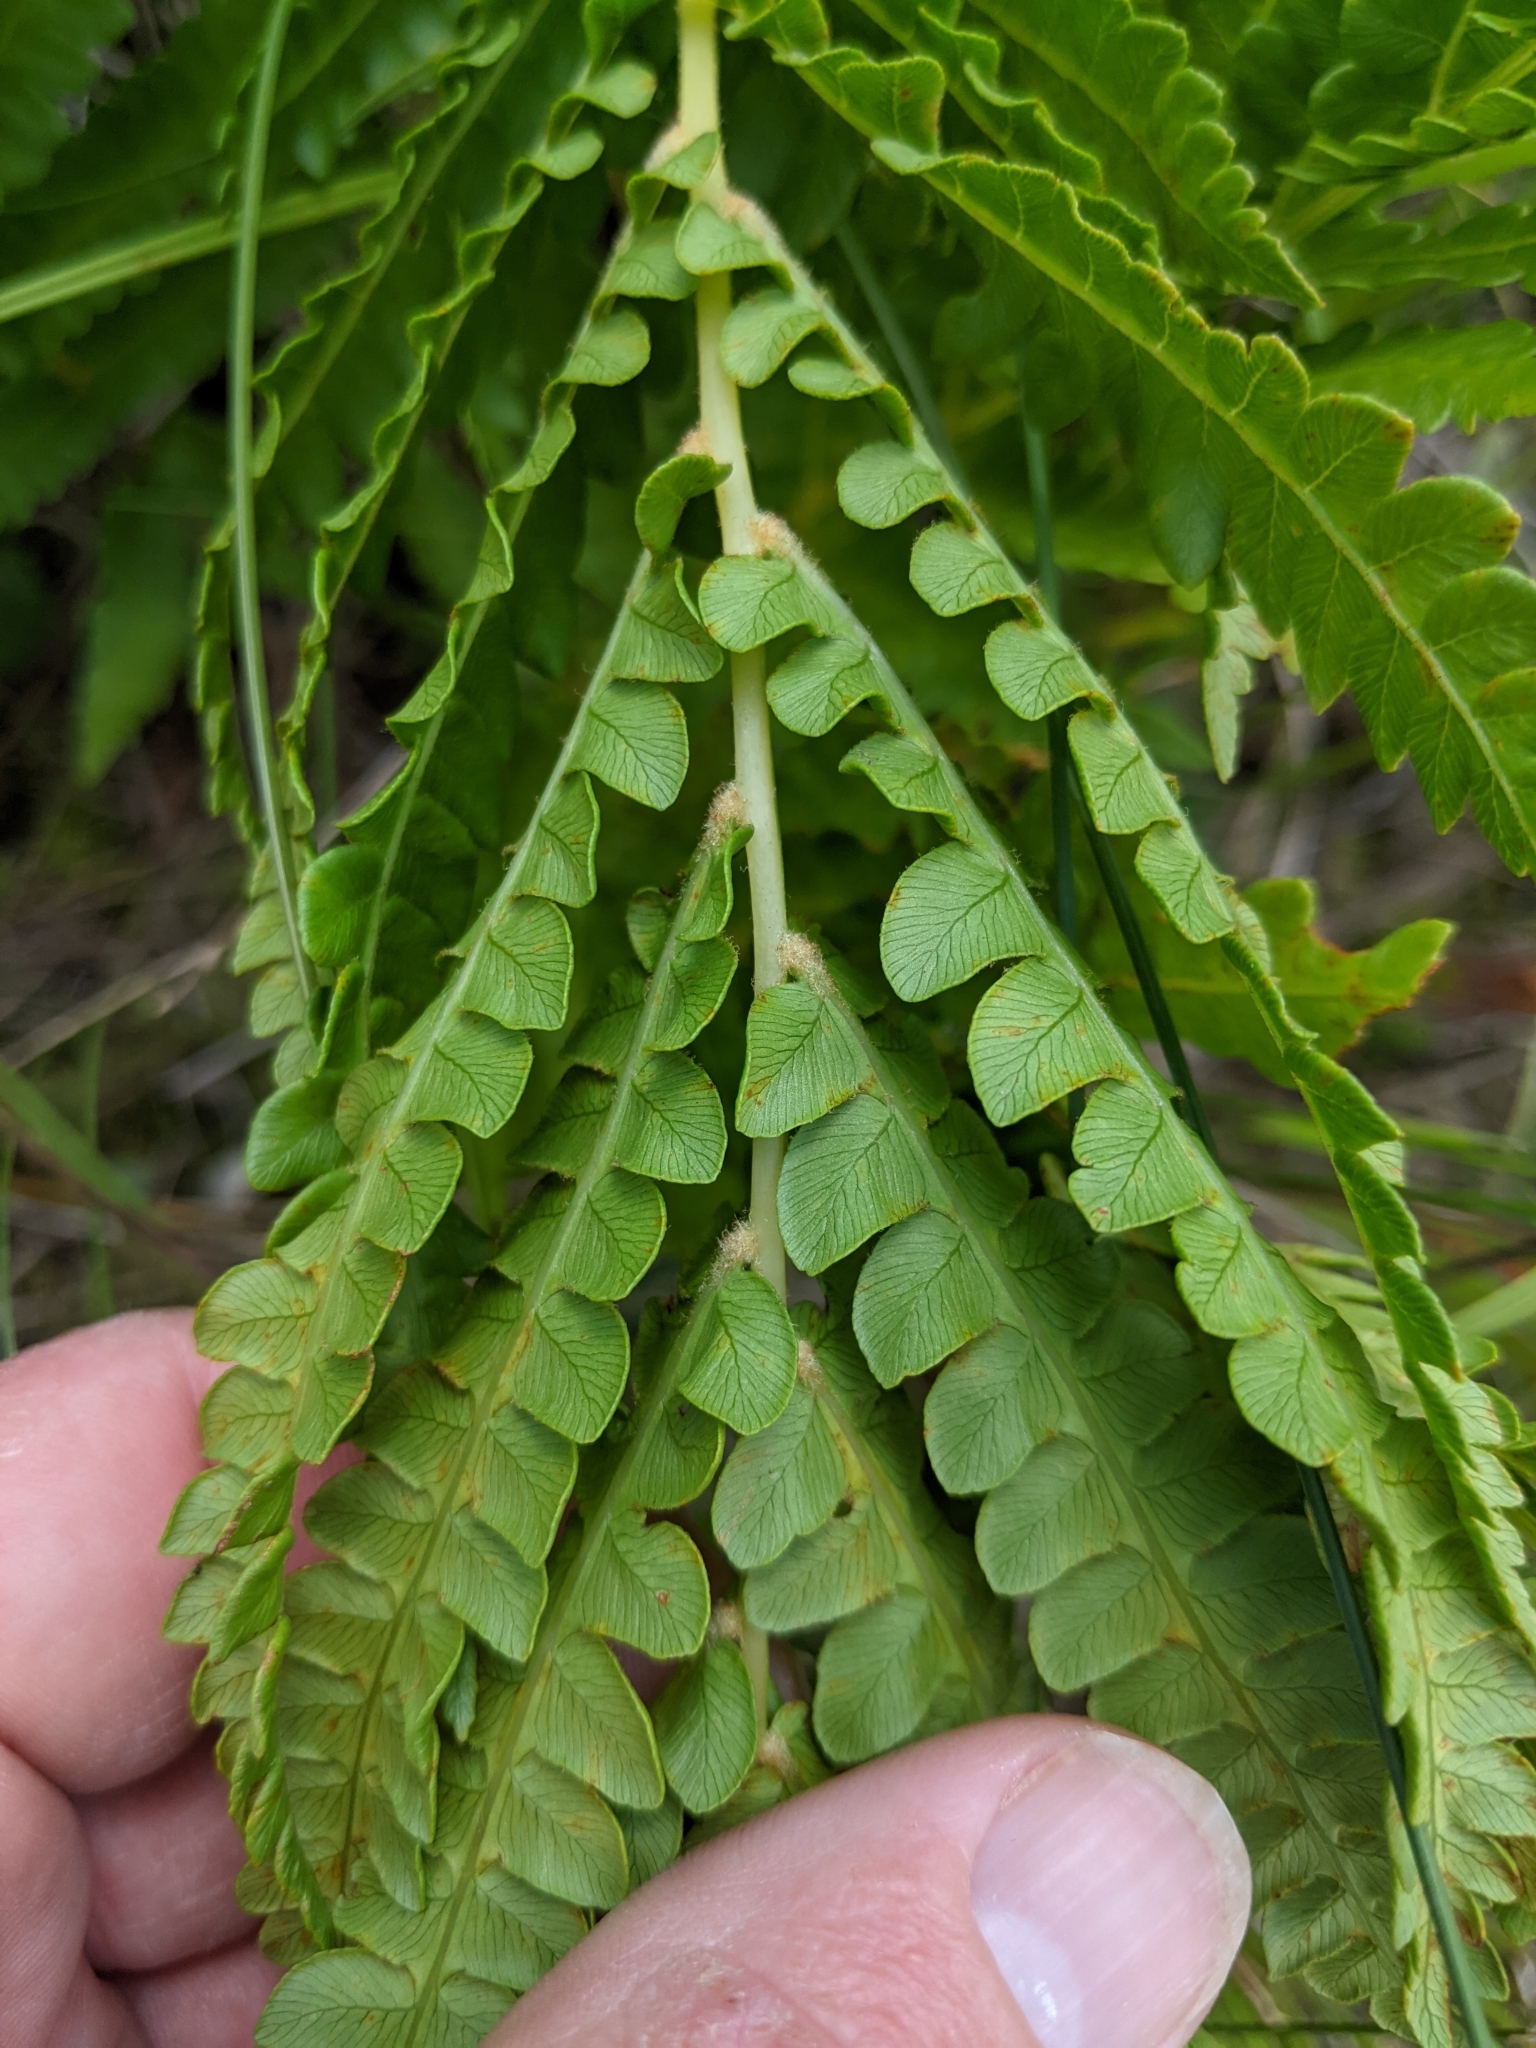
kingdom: Plantae
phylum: Tracheophyta
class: Polypodiopsida
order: Osmundales
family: Osmundaceae
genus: Osmundastrum
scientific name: Osmundastrum cinnamomeum
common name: Cinnamon fern
